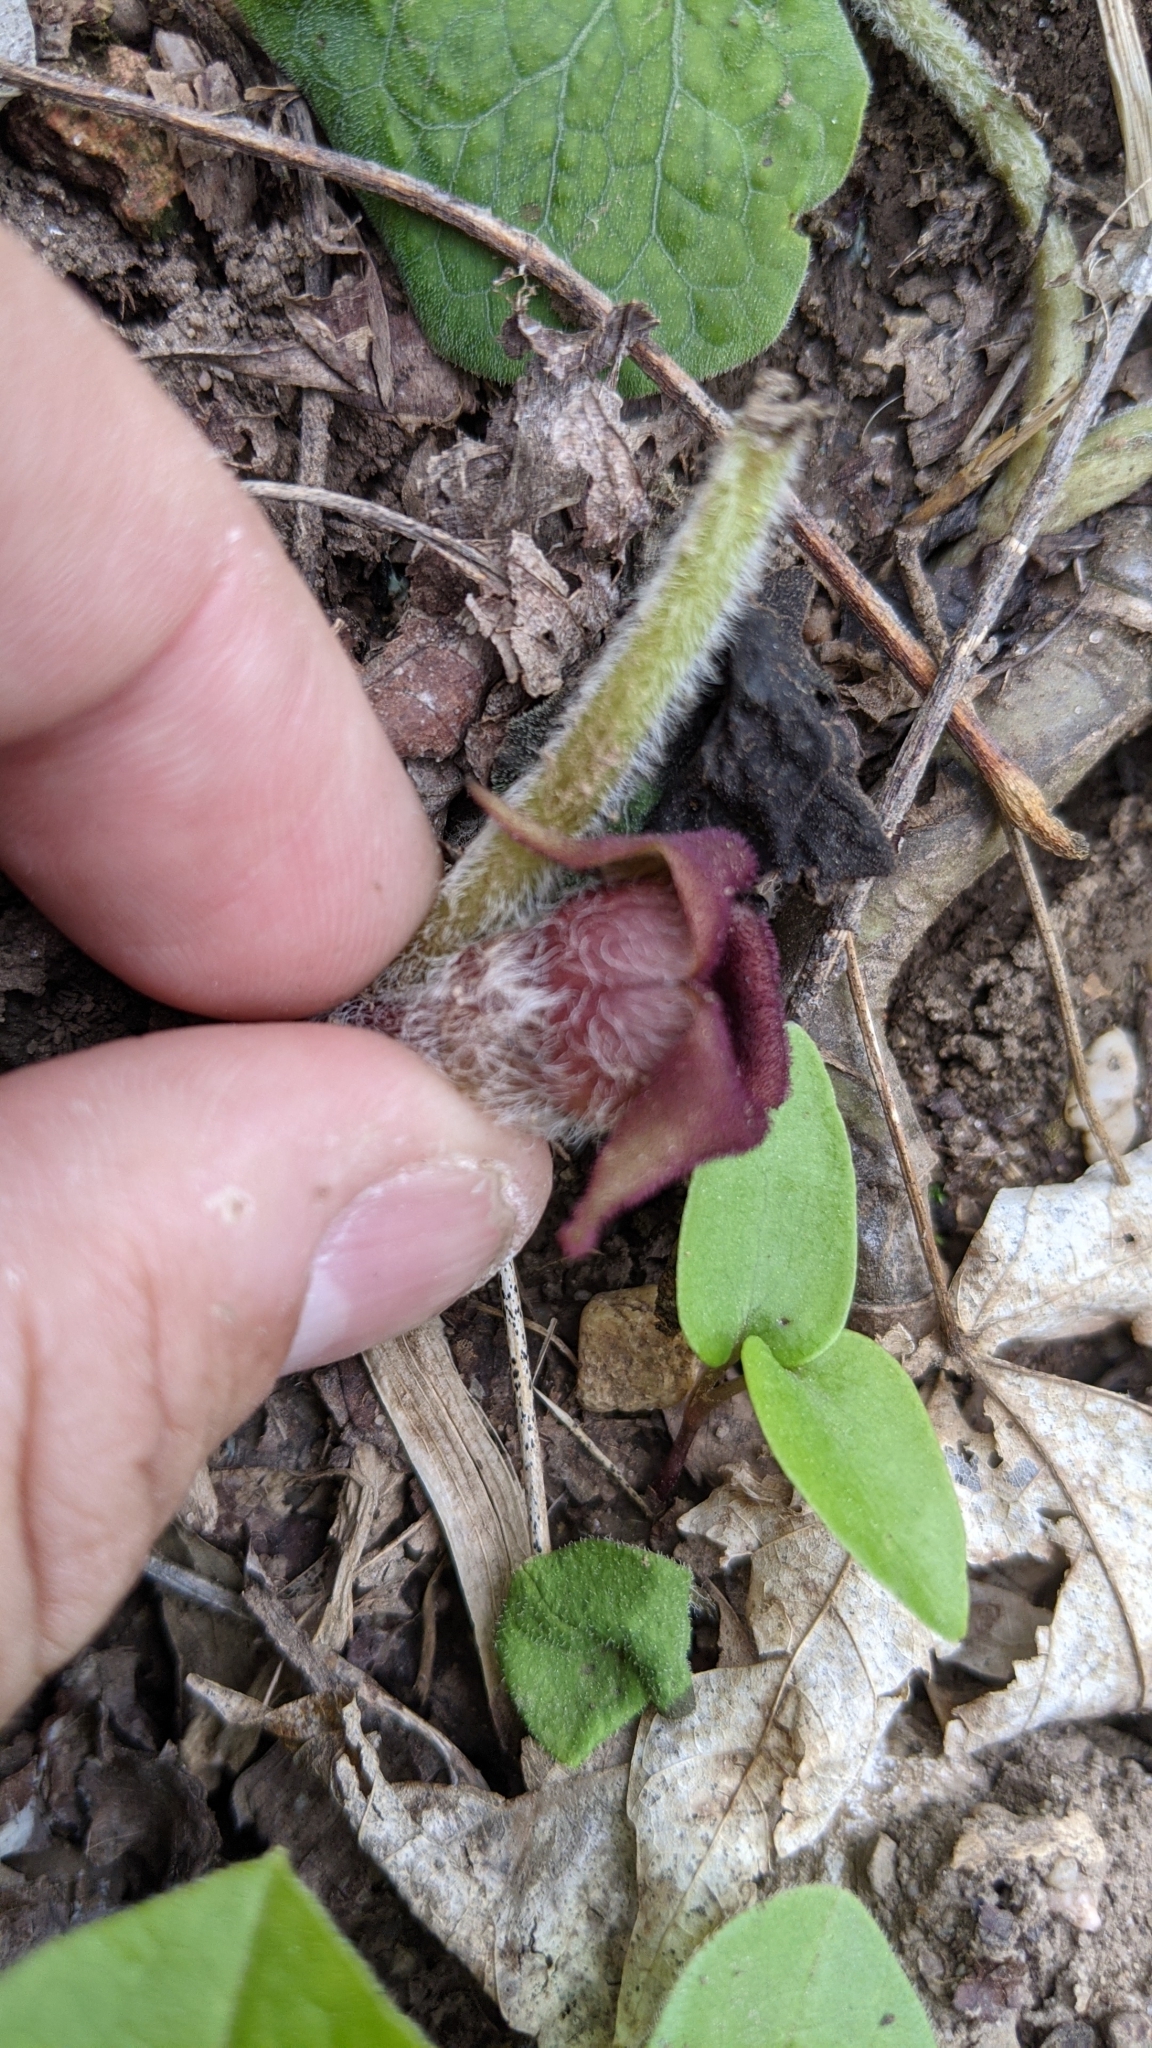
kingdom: Plantae
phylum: Tracheophyta
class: Magnoliopsida
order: Piperales
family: Aristolochiaceae
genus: Asarum
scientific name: Asarum canadense
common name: Wild ginger
